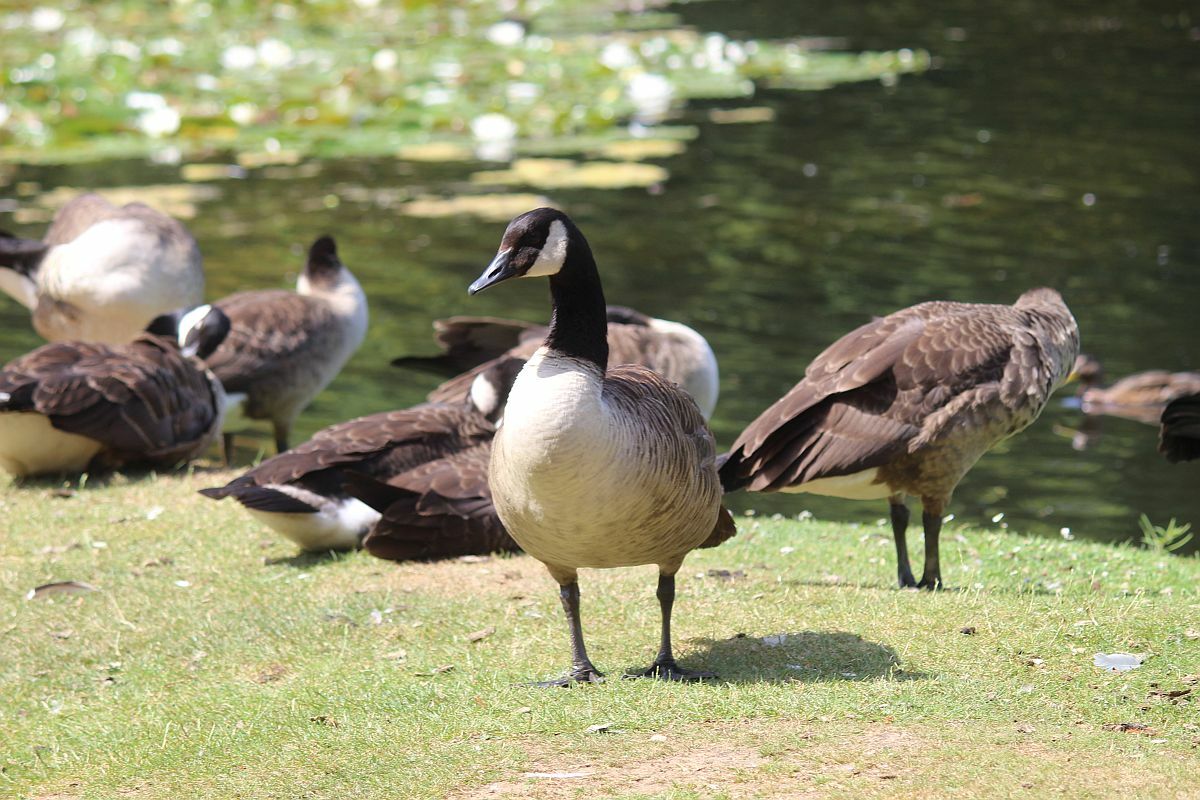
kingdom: Animalia
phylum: Chordata
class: Aves
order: Anseriformes
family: Anatidae
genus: Branta
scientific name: Branta canadensis
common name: Canada goose
